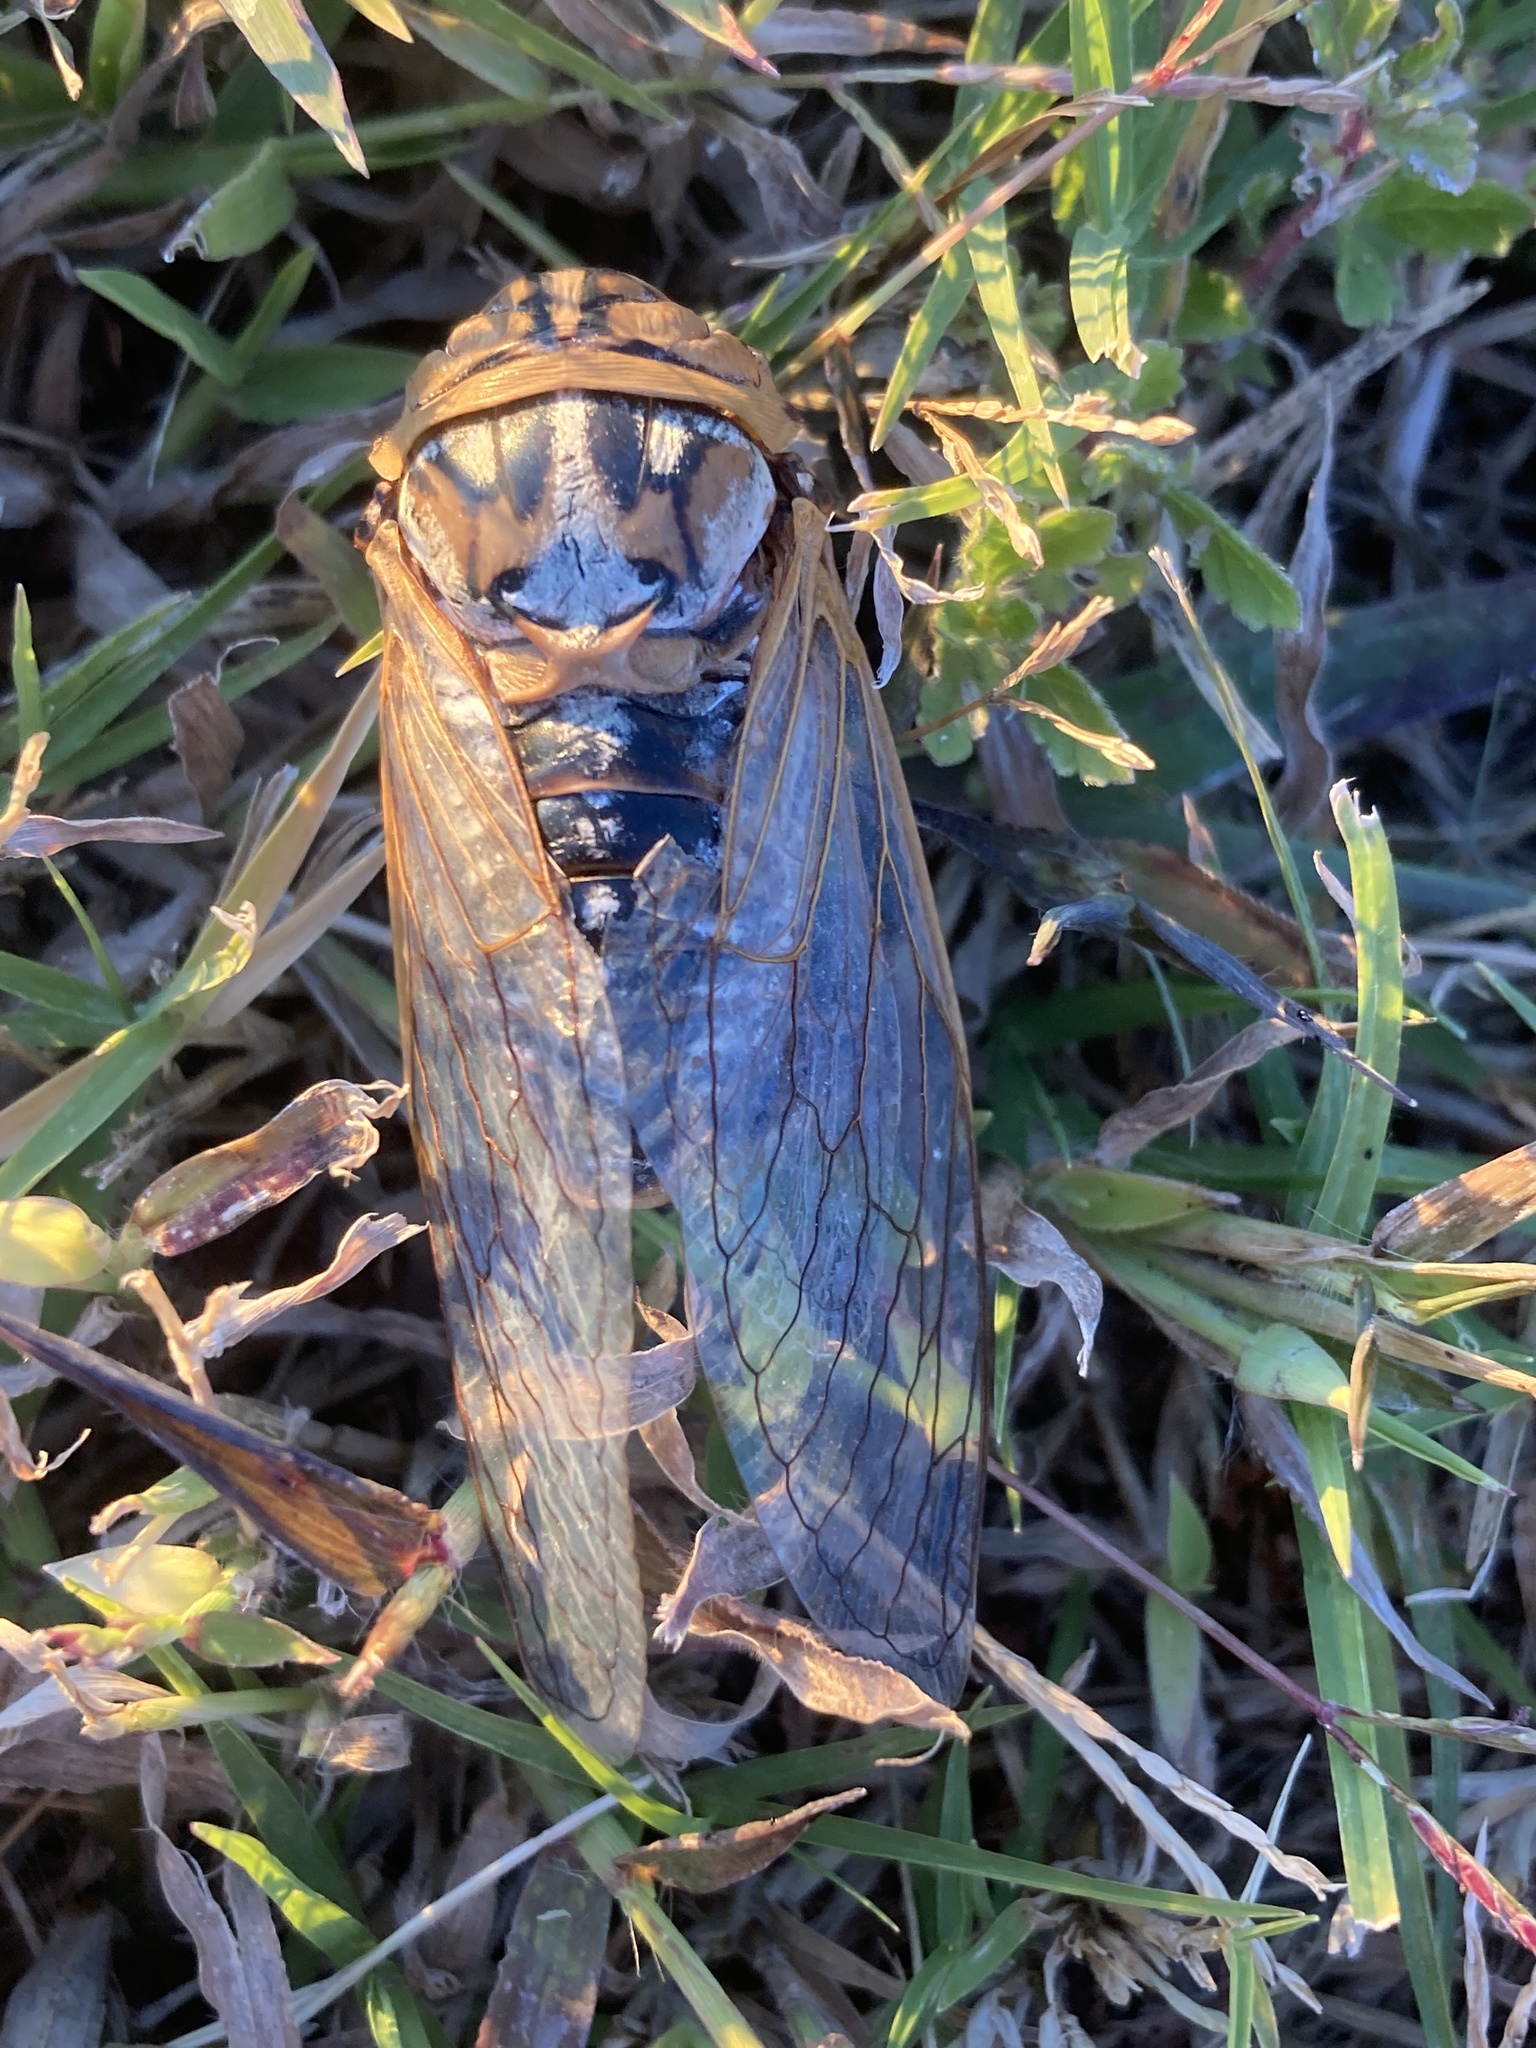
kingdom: Animalia
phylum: Arthropoda
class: Insecta
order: Hemiptera
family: Cicadidae
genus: Megatibicen
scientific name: Megatibicen dealbatus
